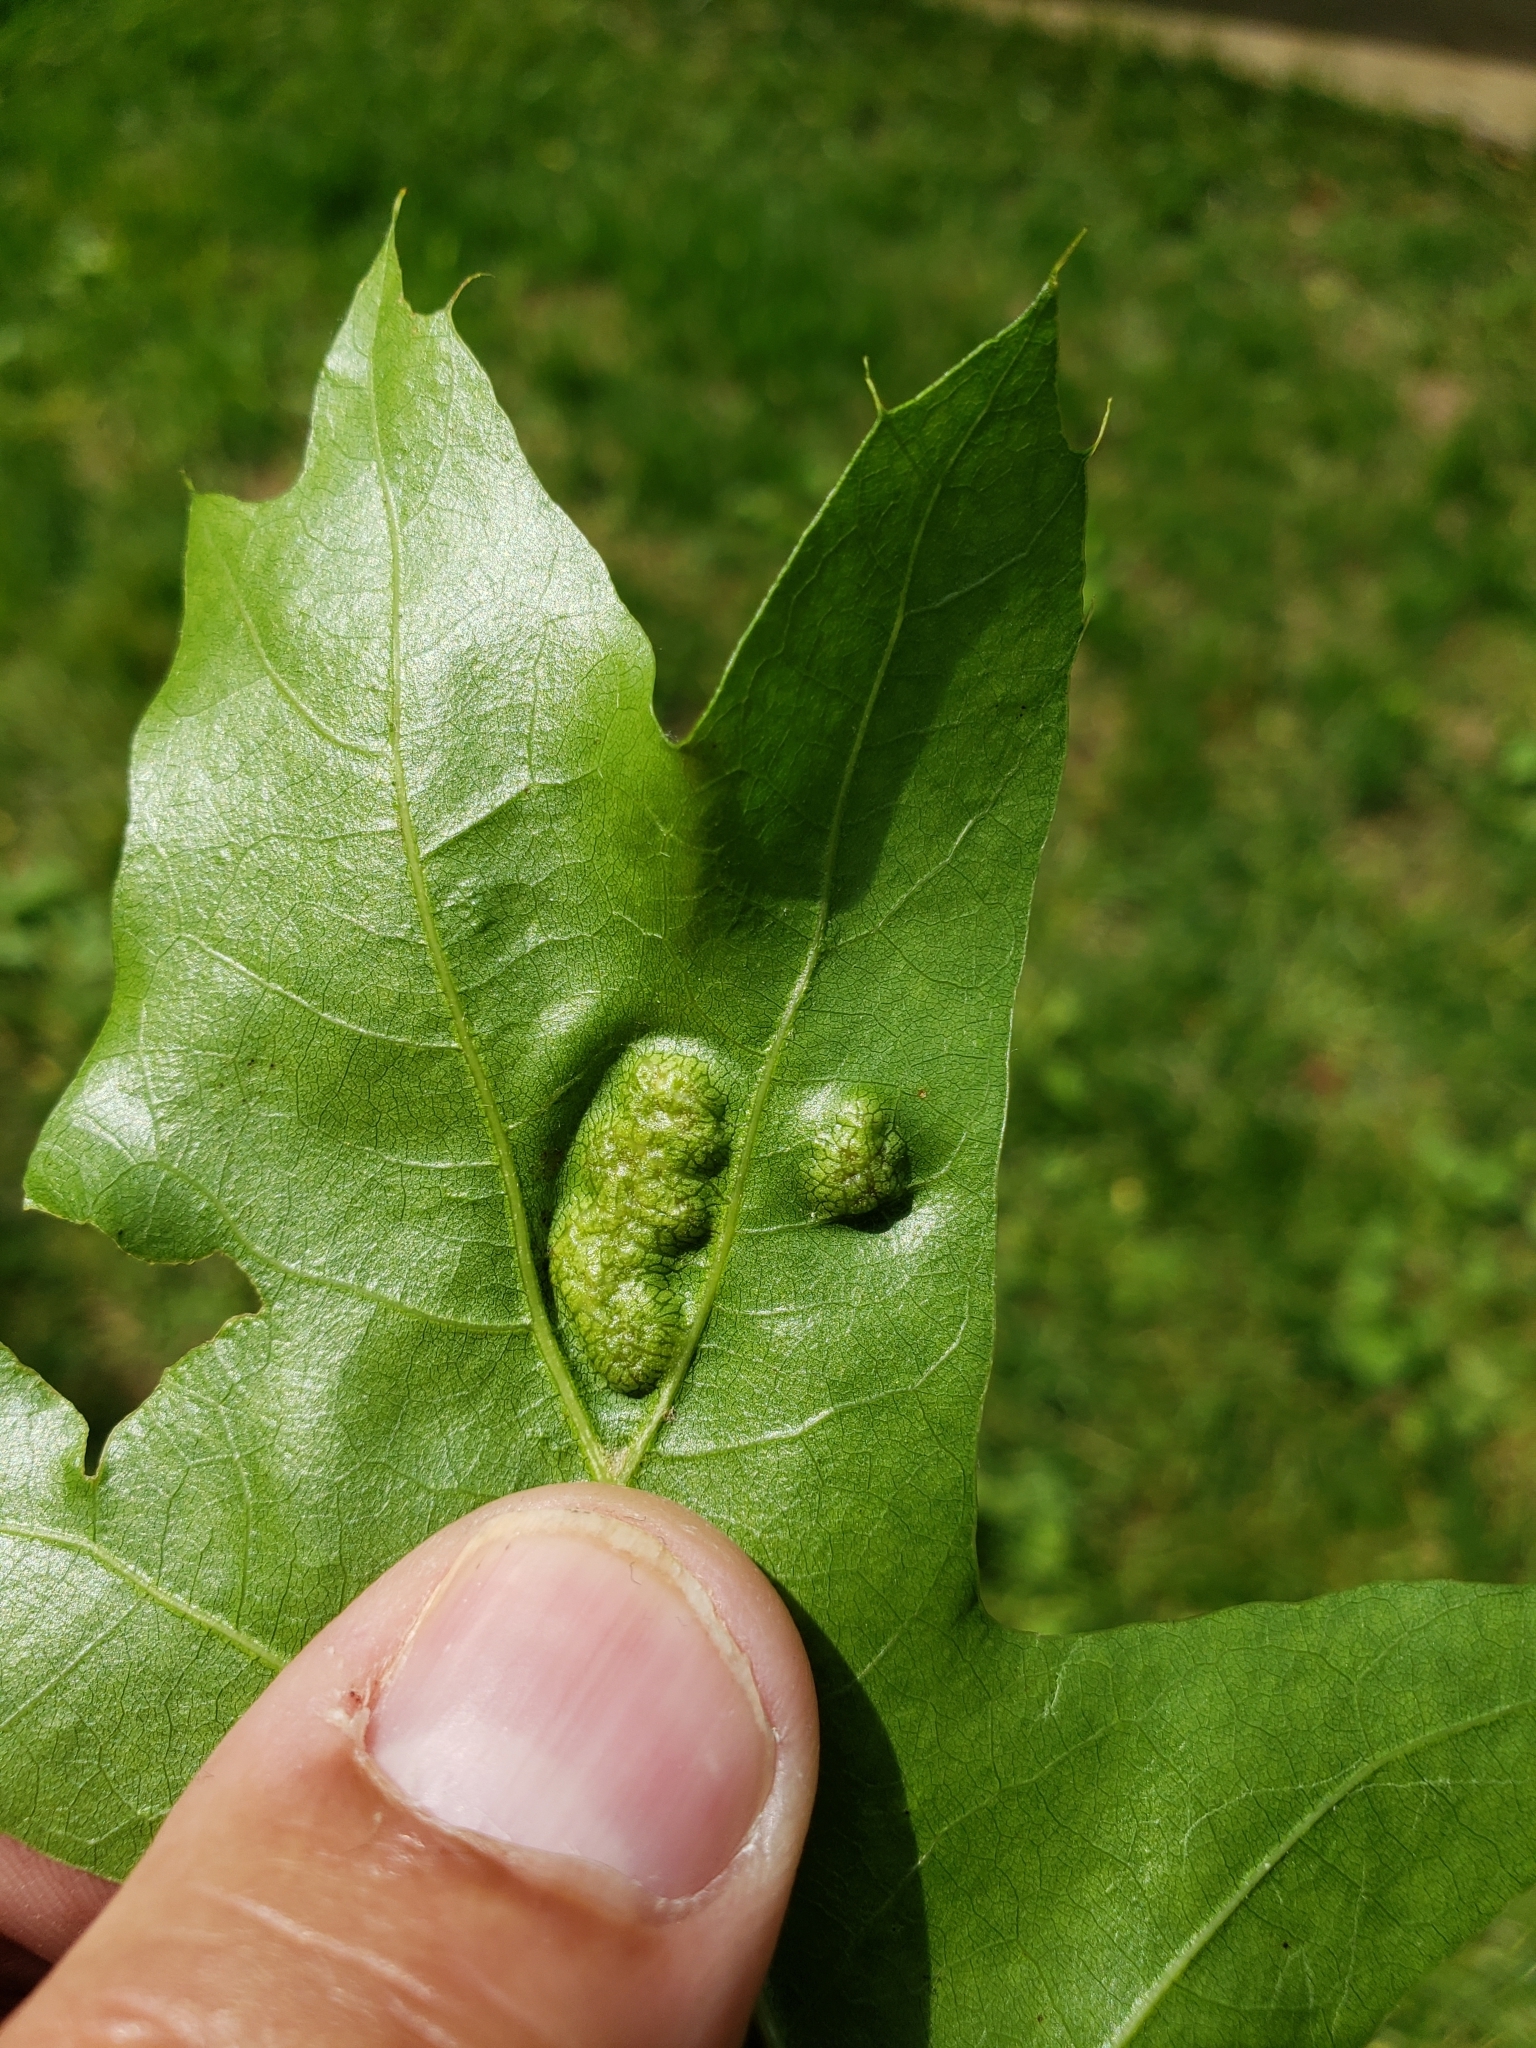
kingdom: Animalia
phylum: Arthropoda
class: Insecta
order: Hymenoptera
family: Cynipidae
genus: Callirhytis
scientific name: Callirhytis
